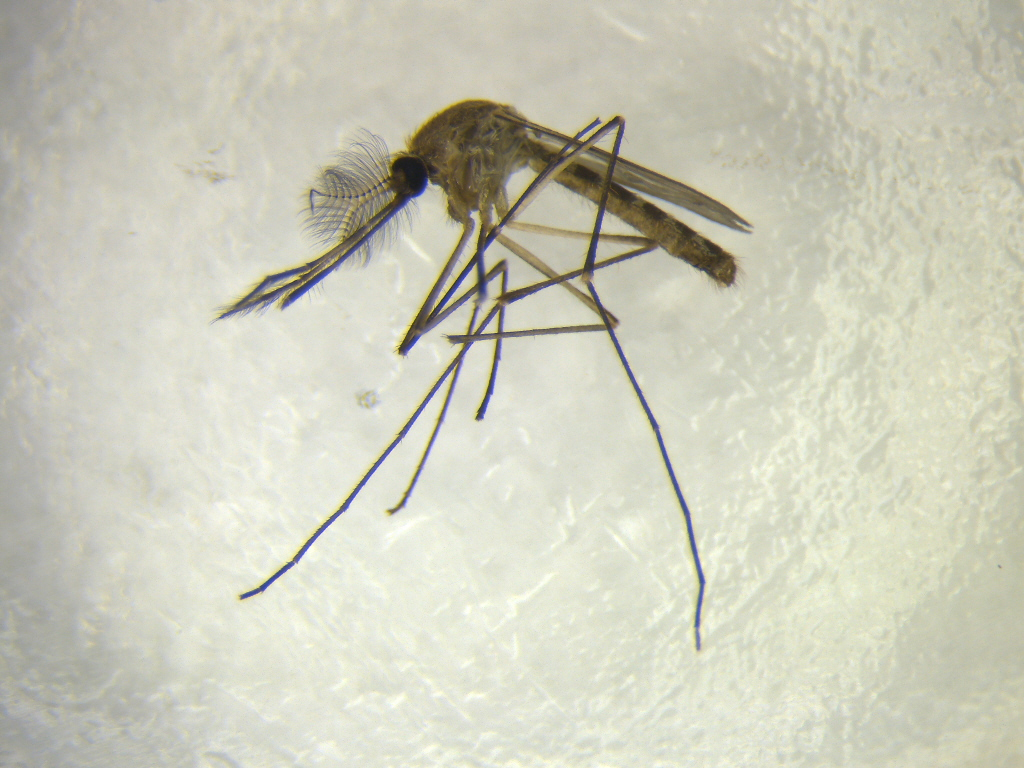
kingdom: Animalia
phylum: Arthropoda
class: Insecta
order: Diptera
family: Culicidae
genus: Culex
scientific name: Culex quinquefasciatus
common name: Southern house mosquito
